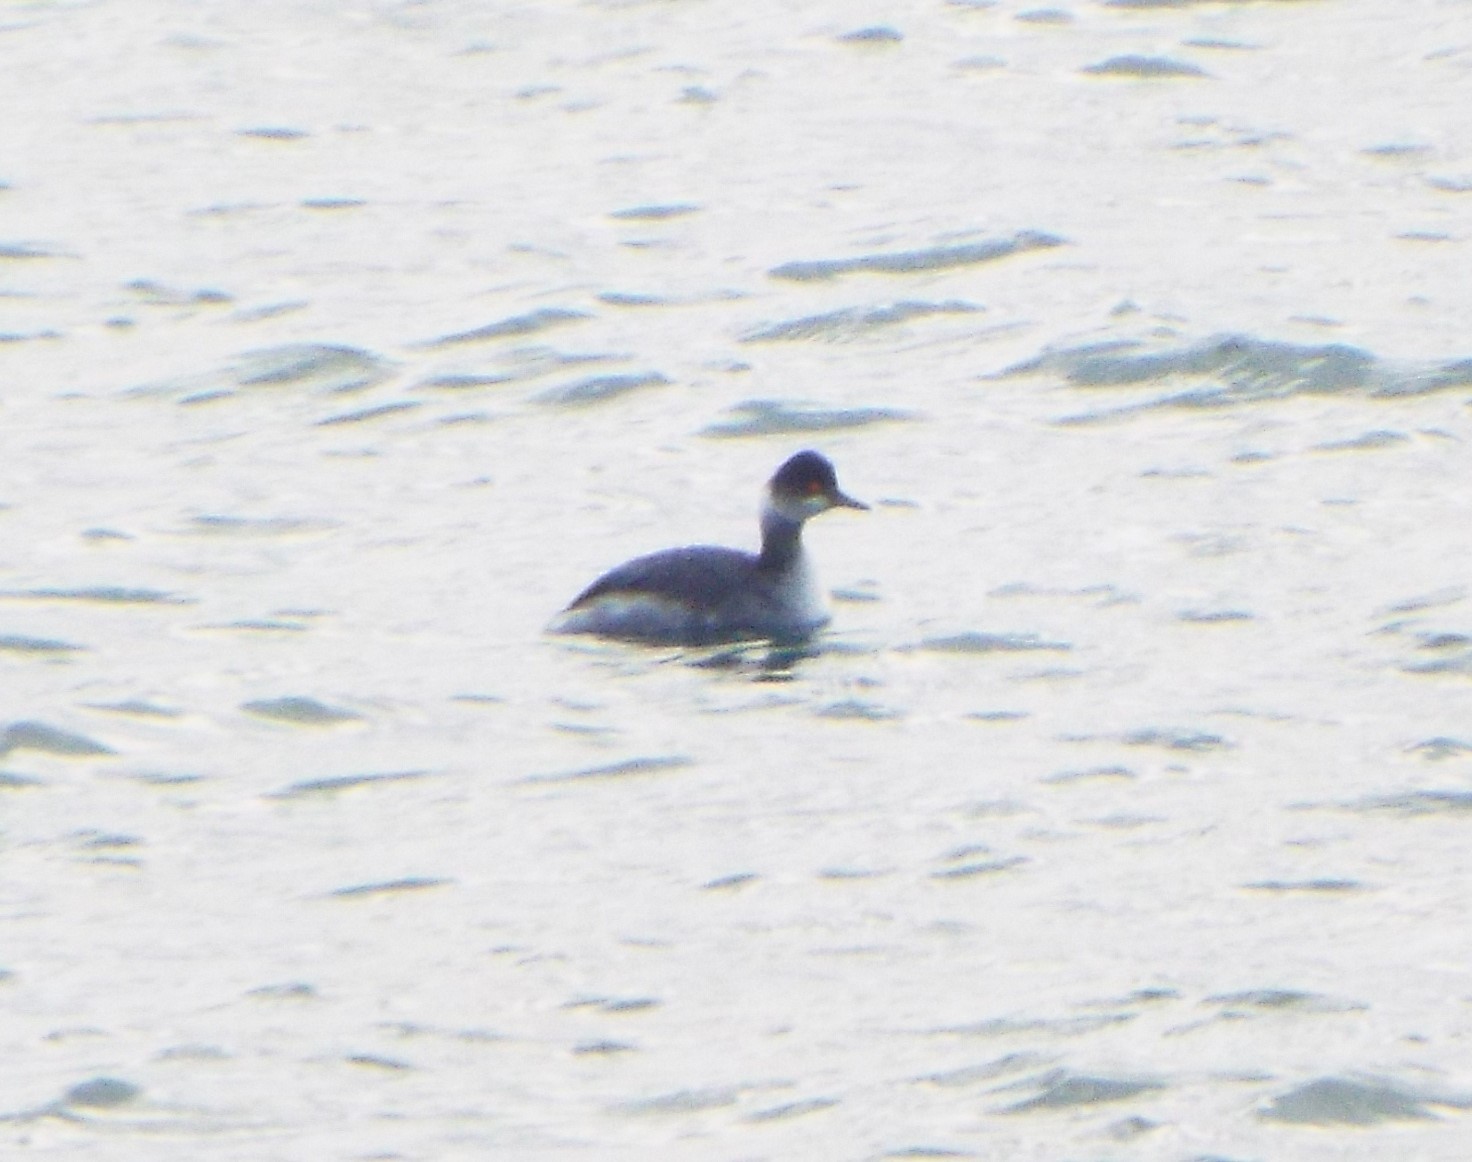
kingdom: Animalia
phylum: Chordata
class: Aves
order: Podicipediformes
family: Podicipedidae
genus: Podiceps
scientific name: Podiceps nigricollis
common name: Black-necked grebe
